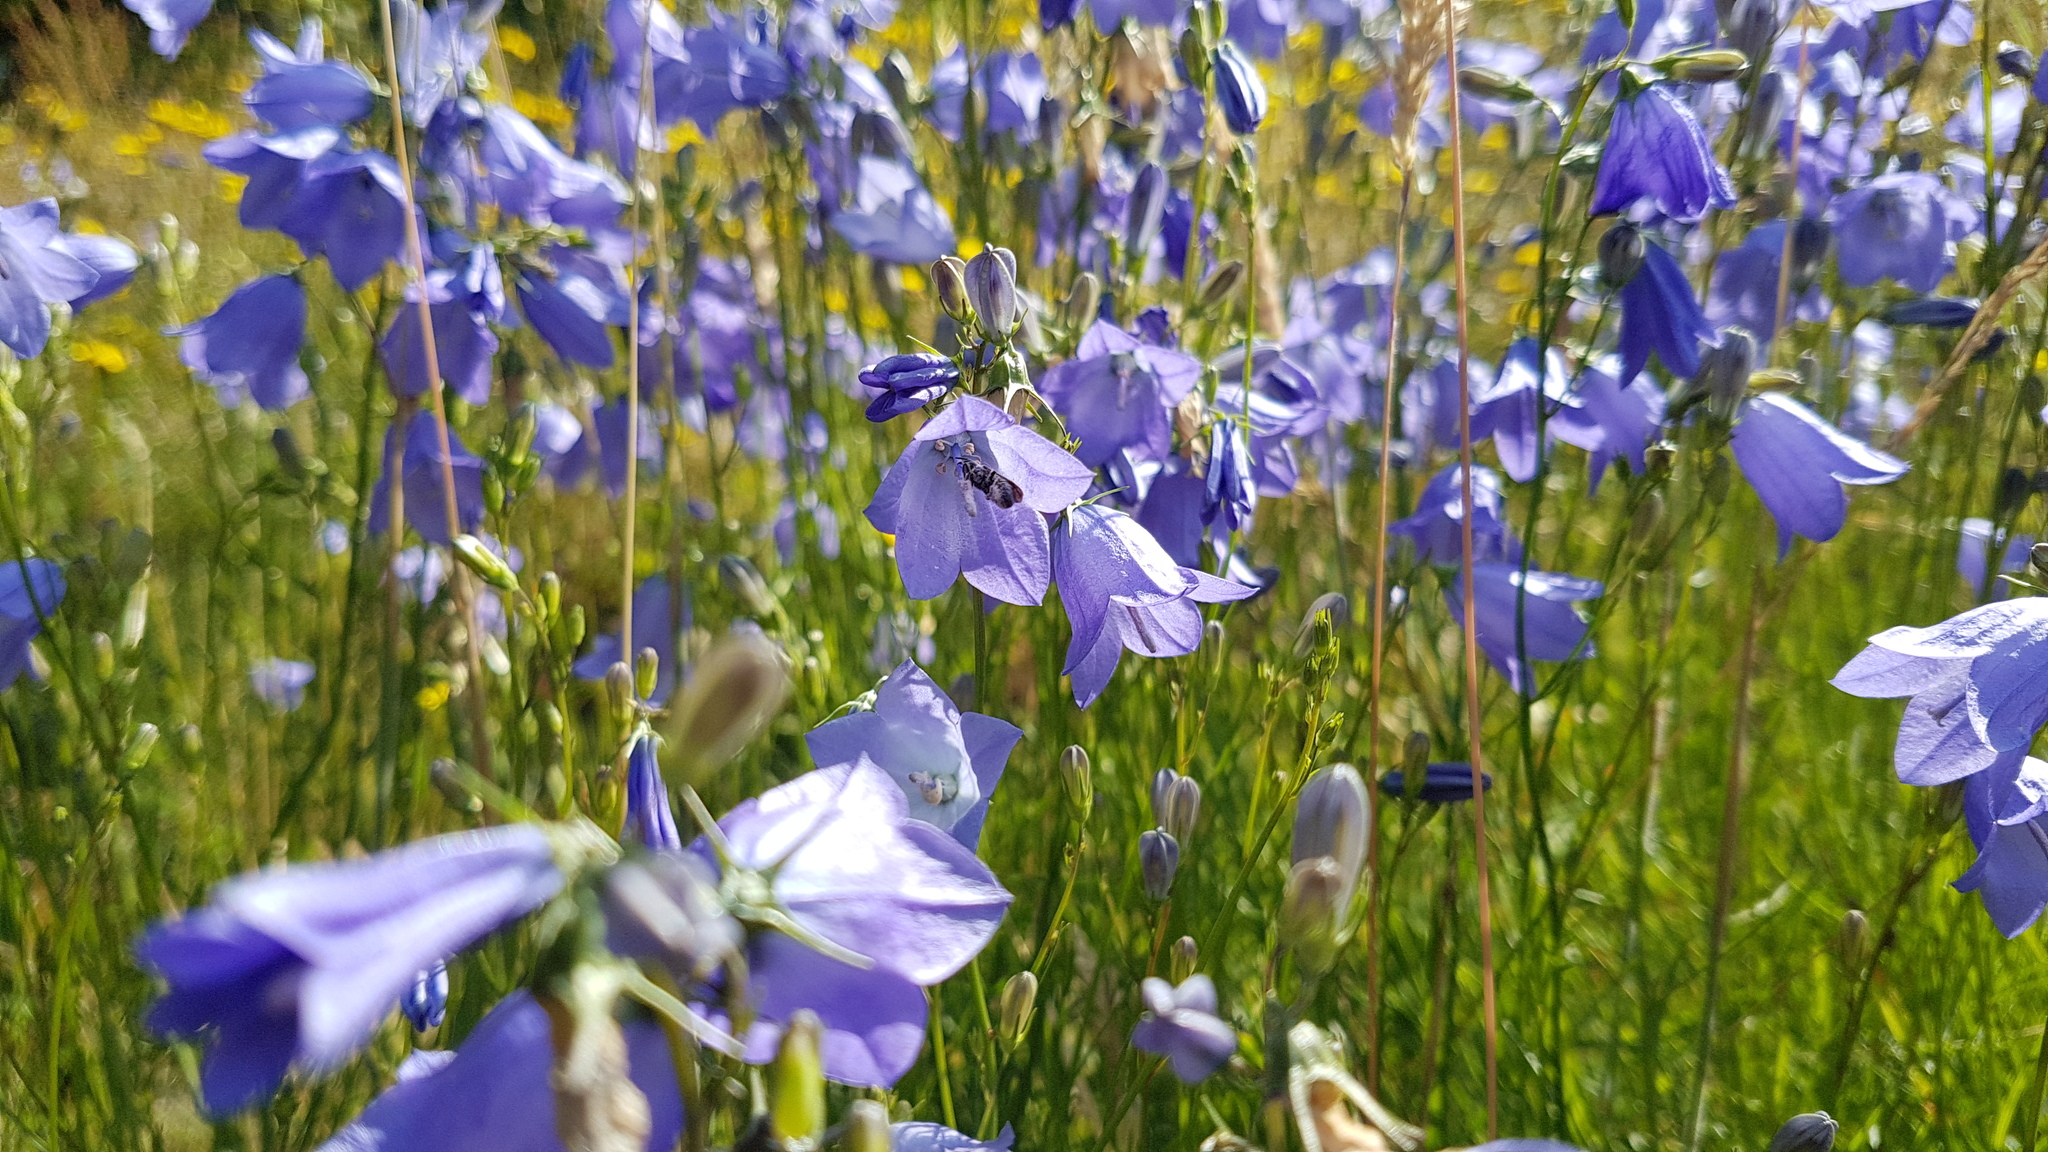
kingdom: Plantae
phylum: Tracheophyta
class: Magnoliopsida
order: Asterales
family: Campanulaceae
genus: Campanula
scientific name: Campanula rotundifolia
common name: Harebell
